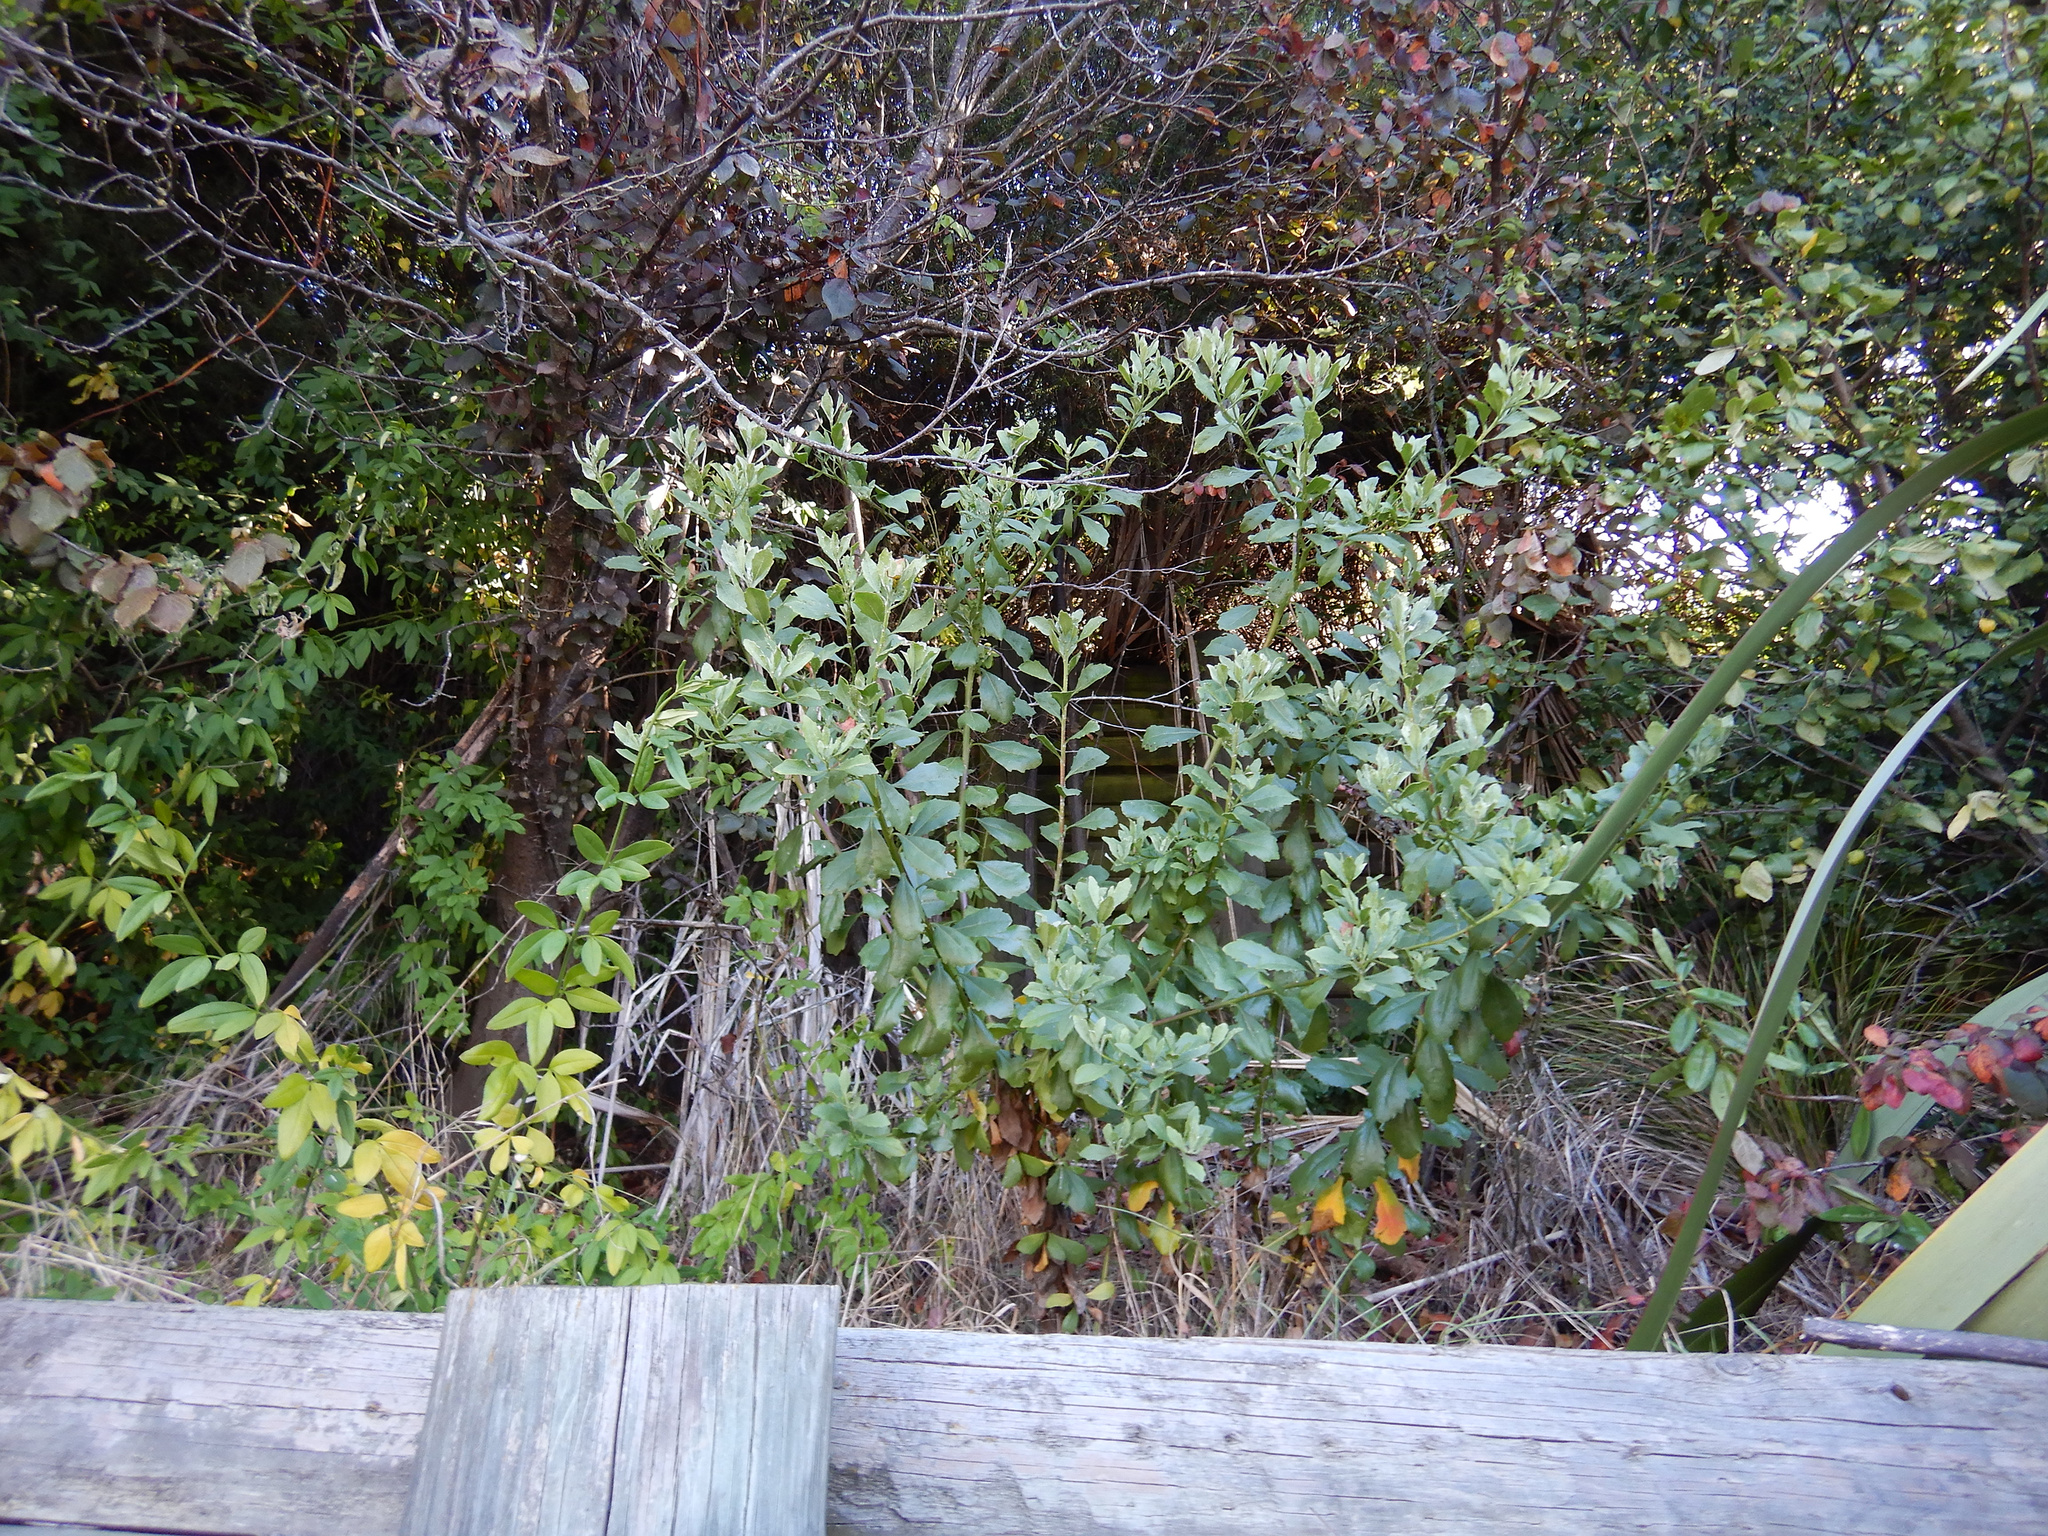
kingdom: Plantae
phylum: Tracheophyta
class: Magnoliopsida
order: Asterales
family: Asteraceae
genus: Osteospermum
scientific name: Osteospermum moniliferum
